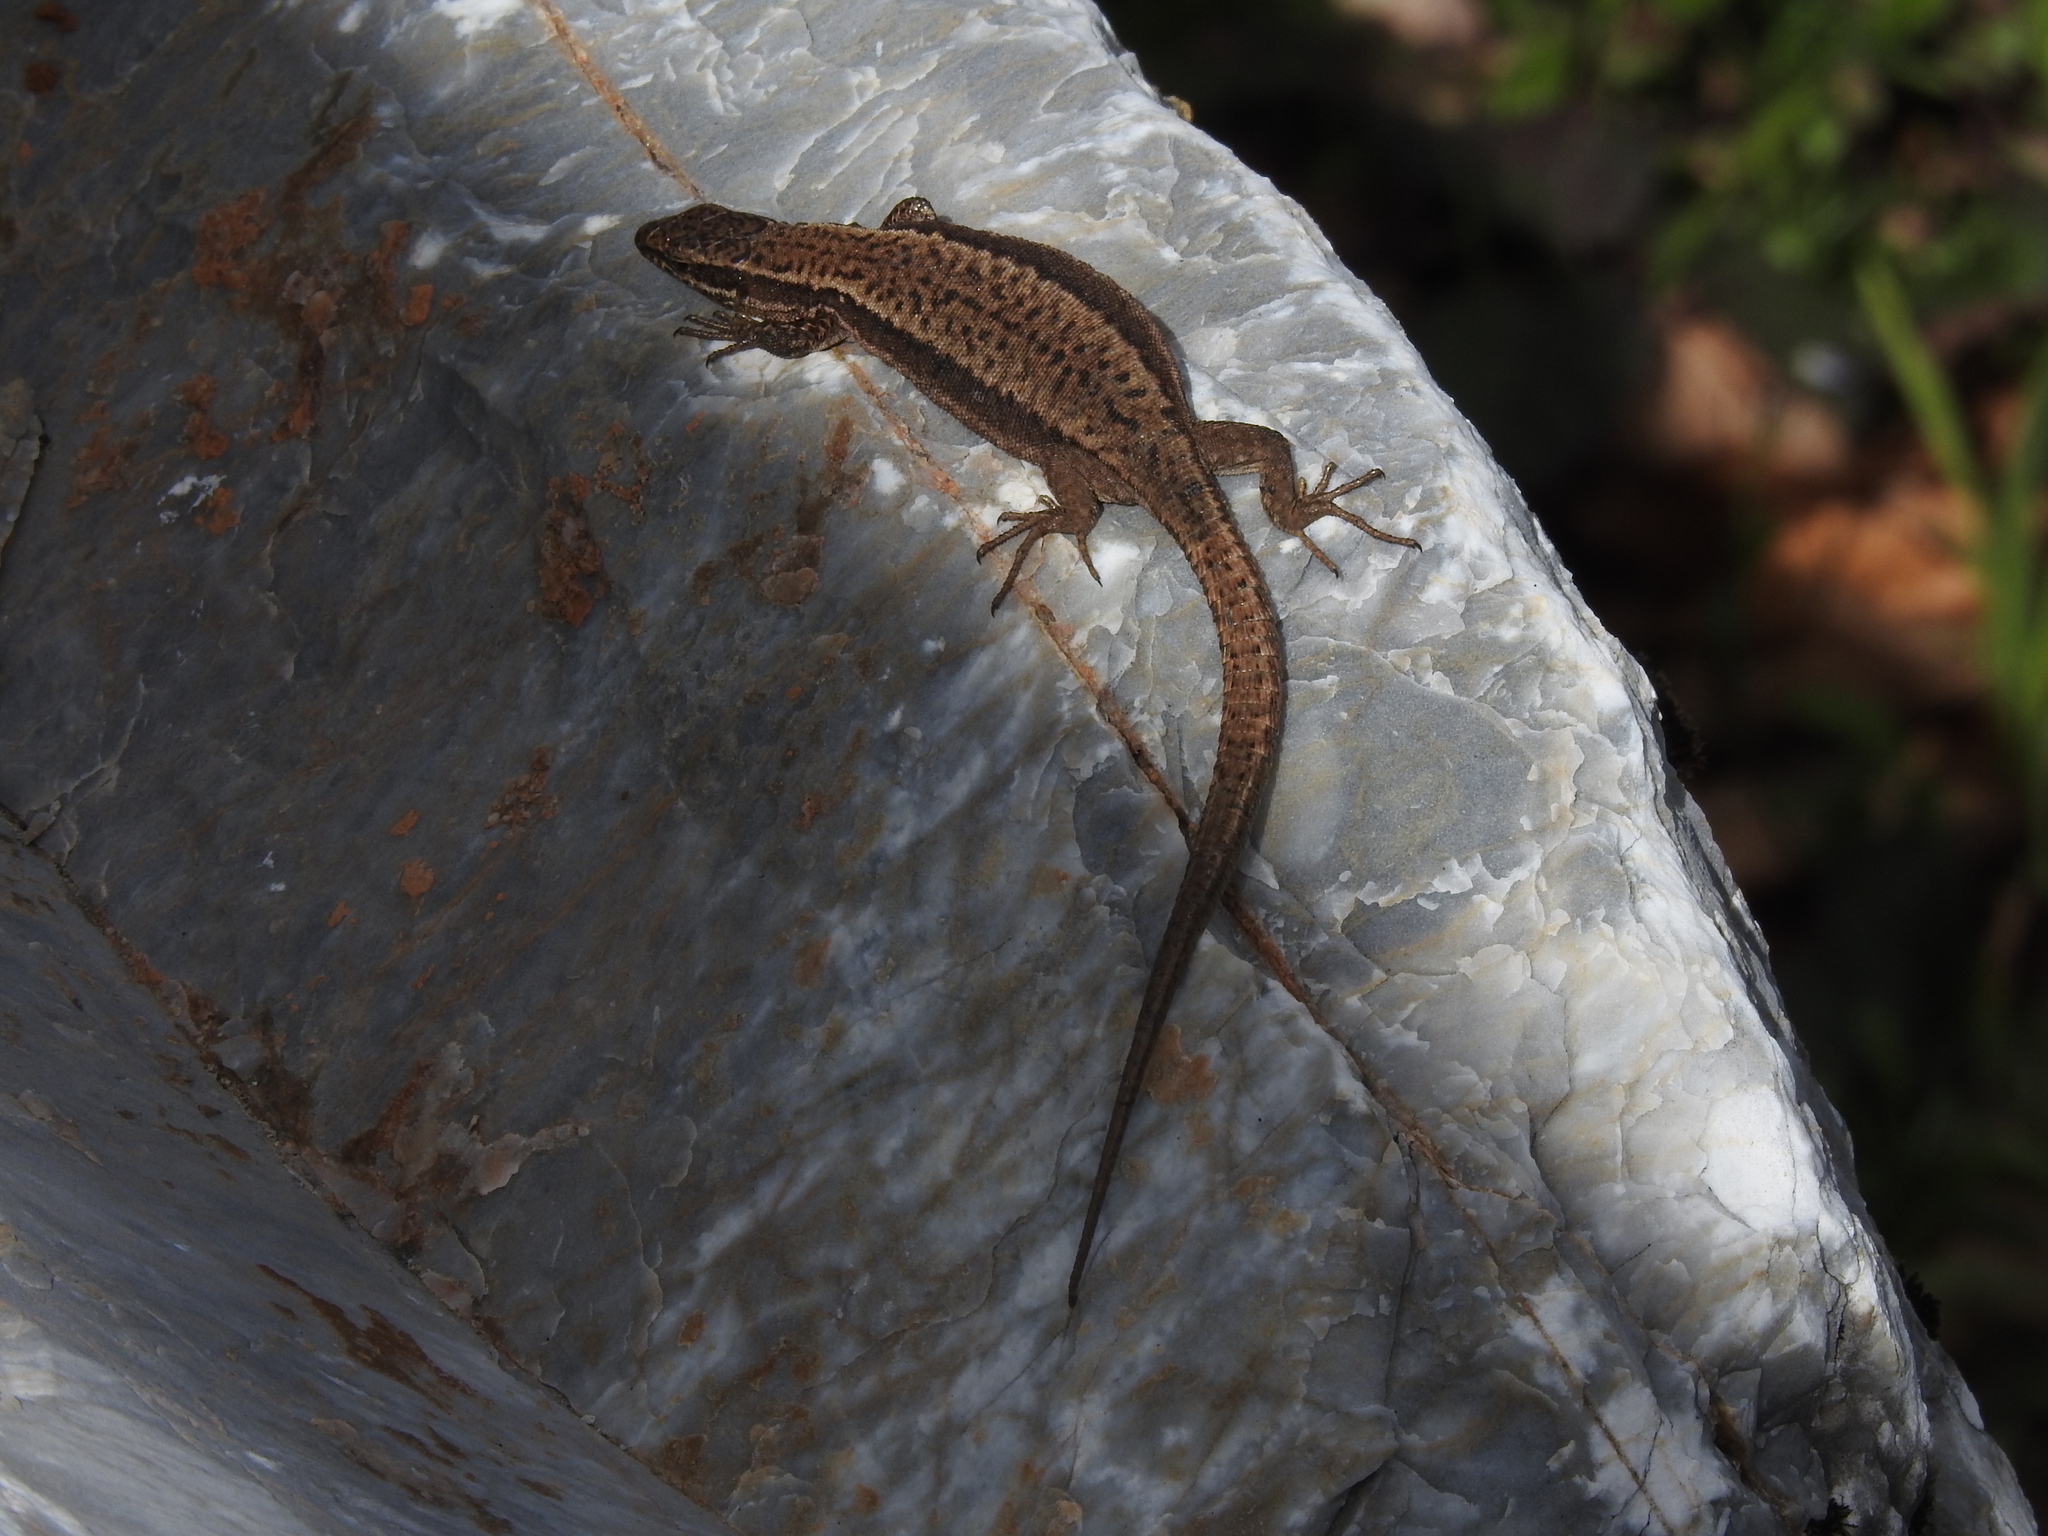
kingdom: Animalia
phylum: Chordata
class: Squamata
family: Lacertidae
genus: Podarcis
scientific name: Podarcis muralis
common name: Common wall lizard
